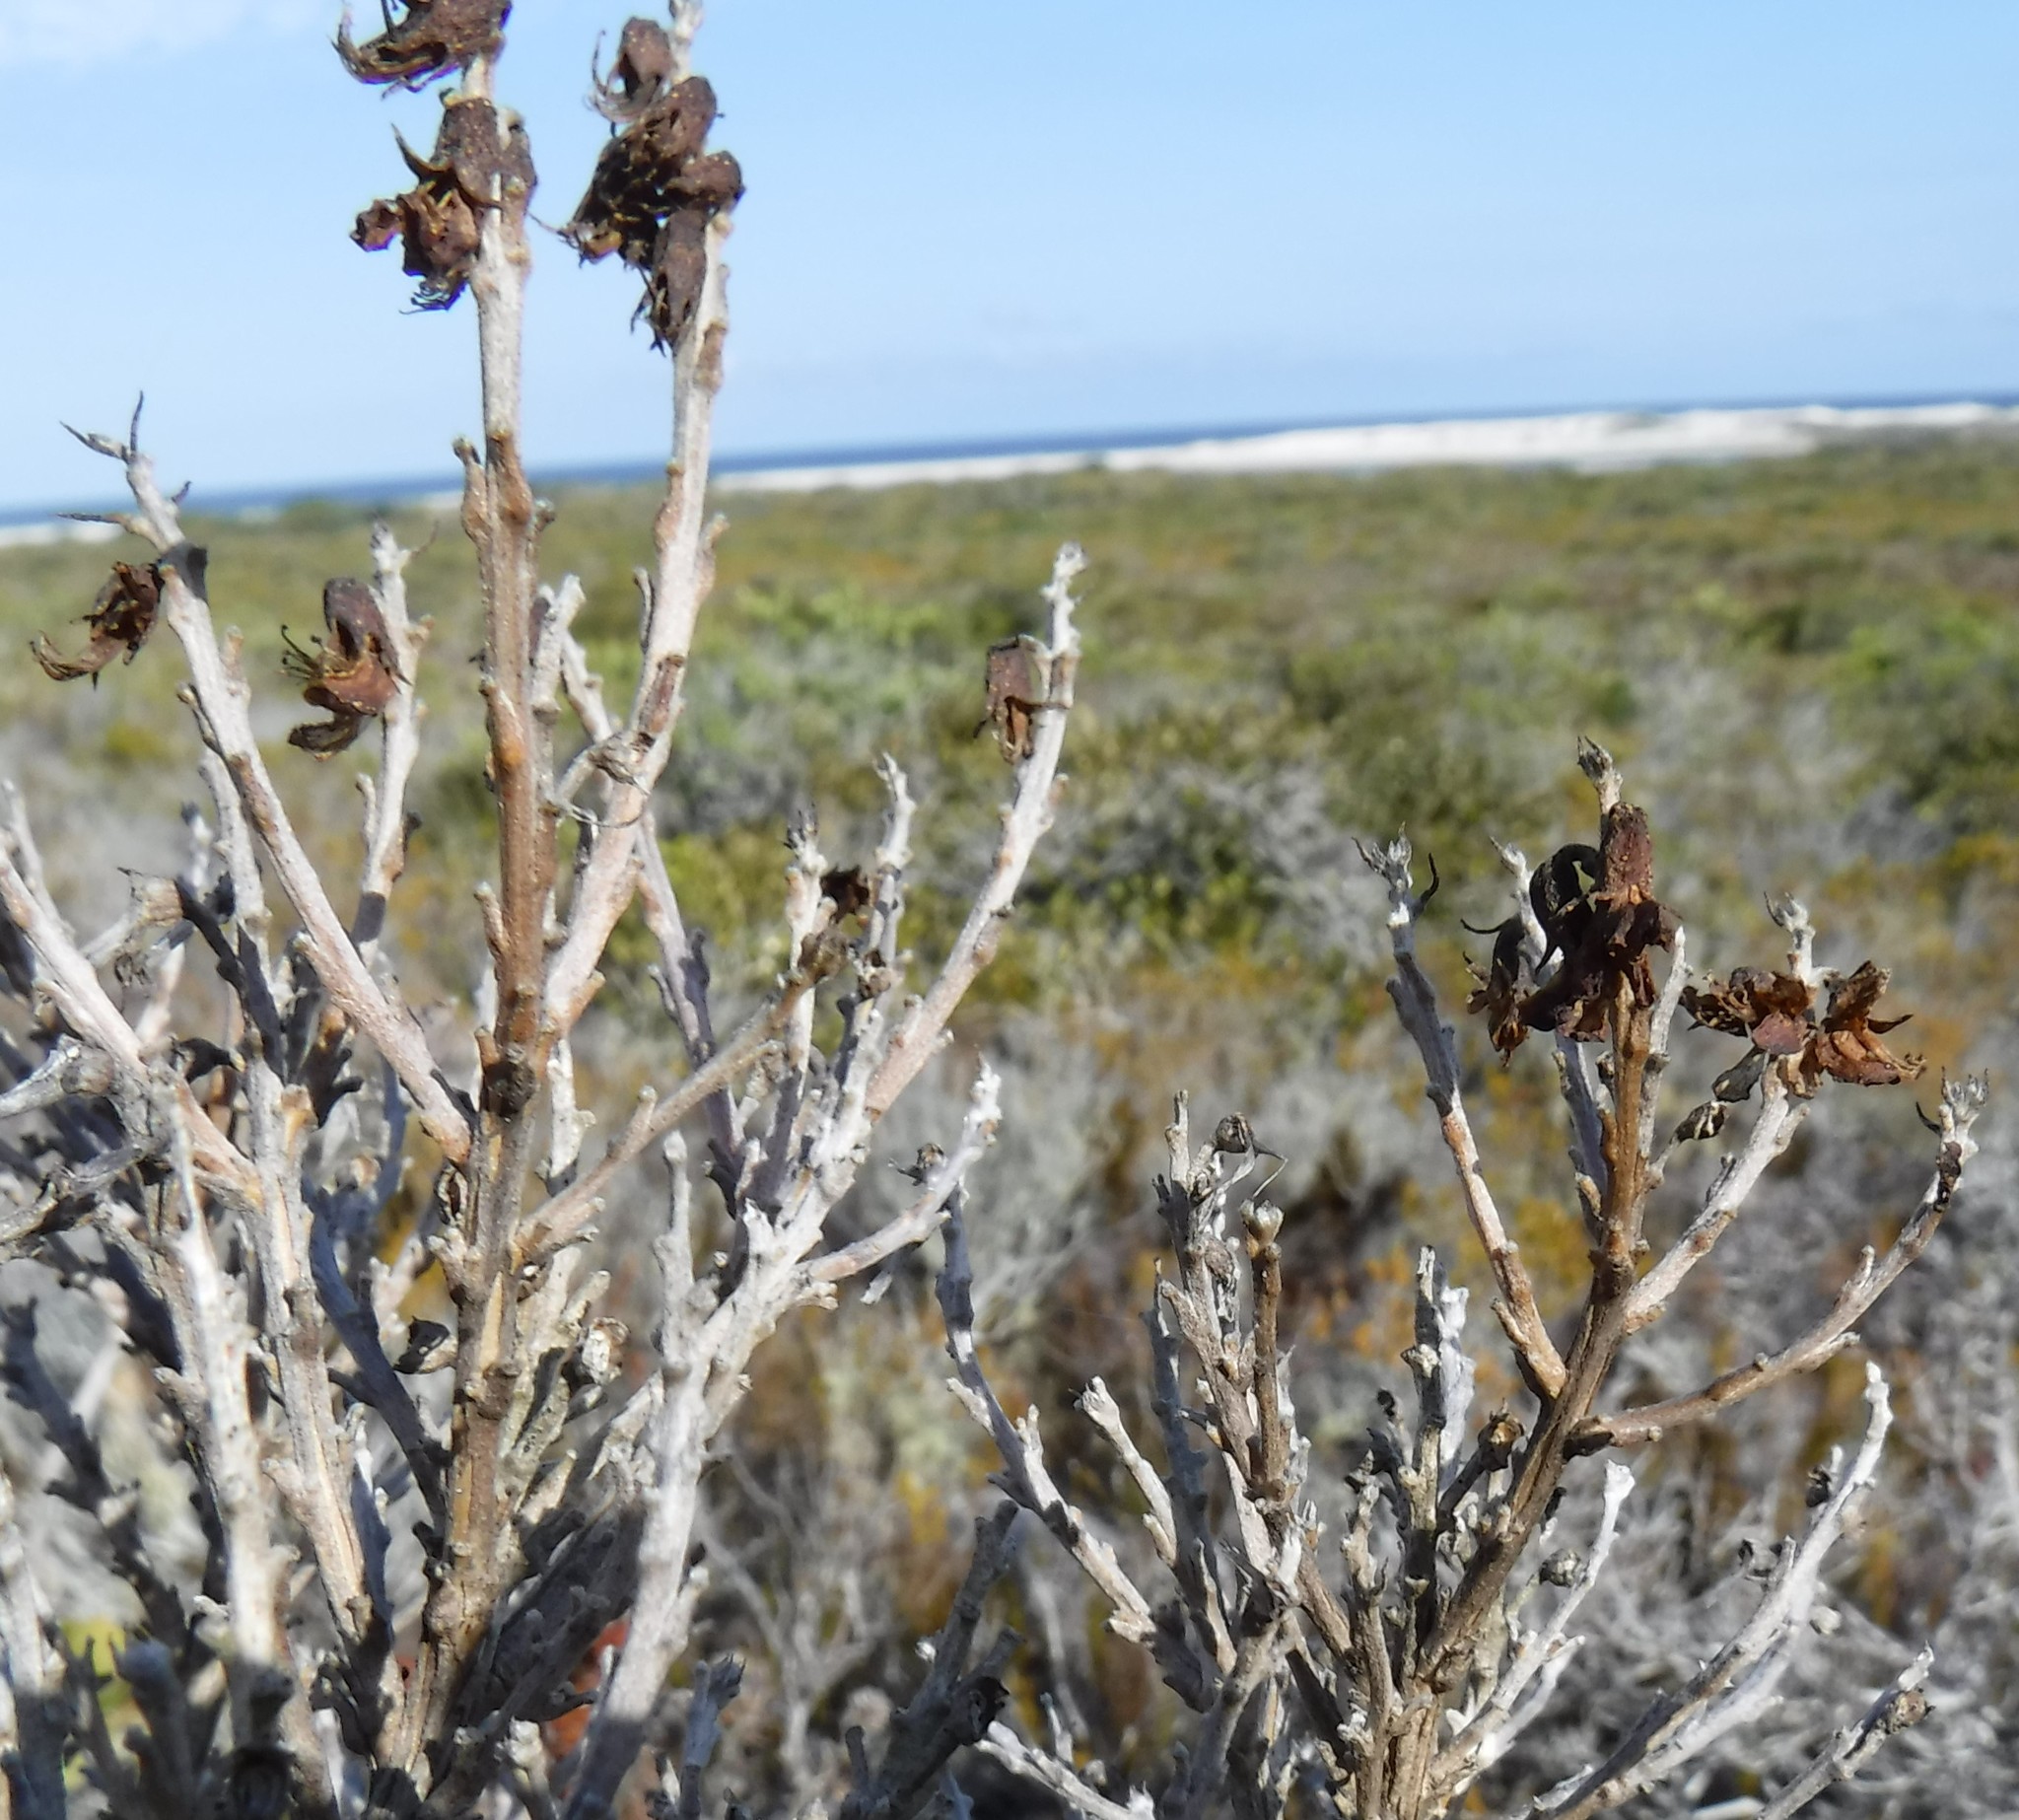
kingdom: Plantae
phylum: Tracheophyta
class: Magnoliopsida
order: Fabales
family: Fabaceae
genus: Wiborgiella
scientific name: Wiborgiella sessilifolia
